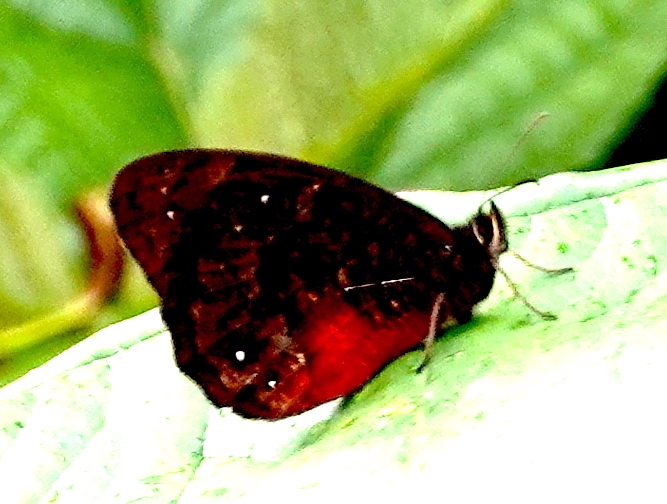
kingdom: Animalia
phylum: Arthropoda
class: Insecta
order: Lepidoptera
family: Nymphalidae
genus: Pedaliodes
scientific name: Pedaliodes
